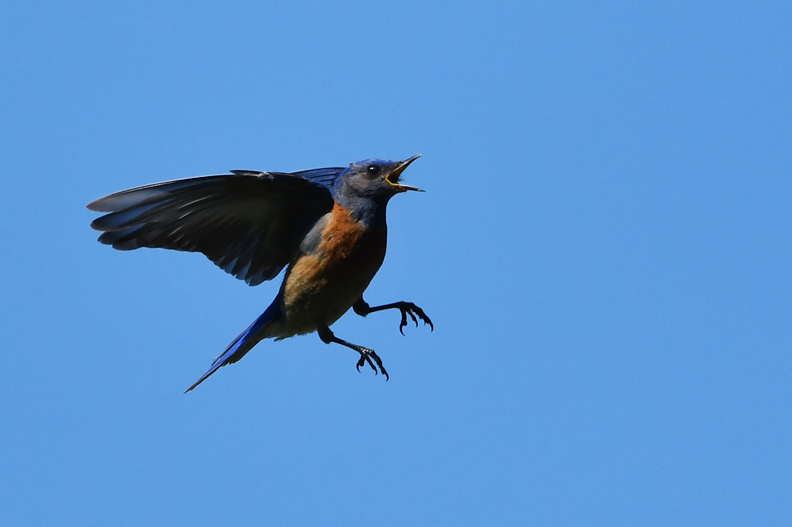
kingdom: Animalia
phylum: Chordata
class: Aves
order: Passeriformes
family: Turdidae
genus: Sialia
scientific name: Sialia mexicana
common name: Western bluebird
